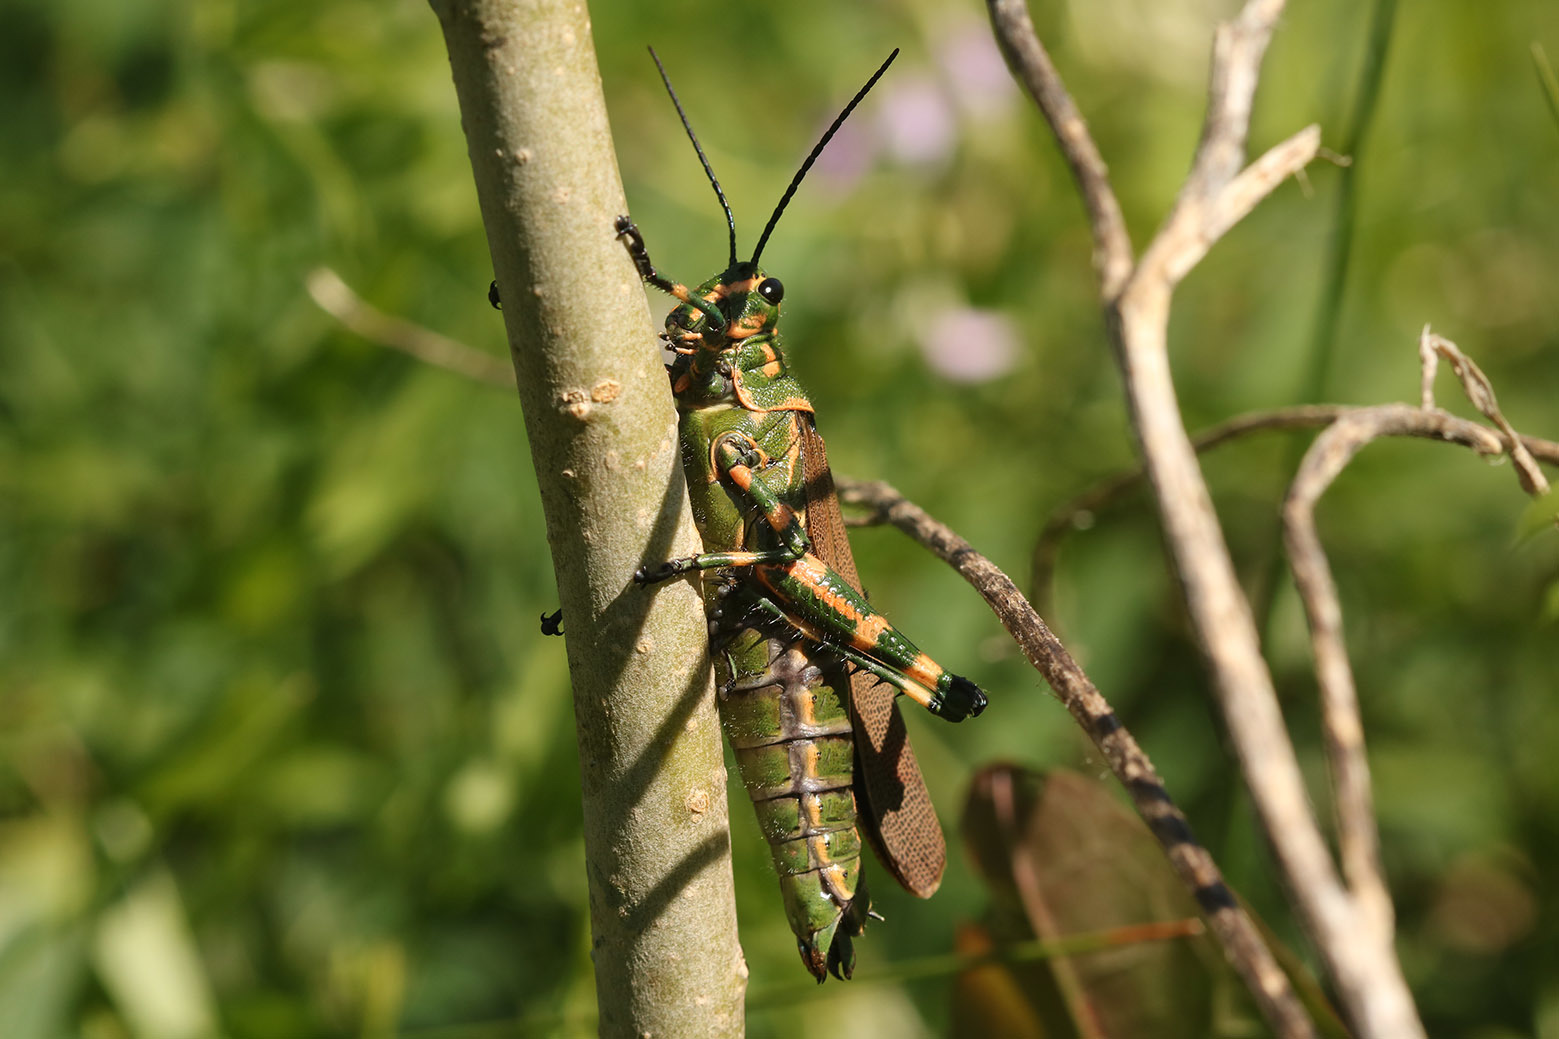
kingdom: Animalia
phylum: Arthropoda
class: Insecta
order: Orthoptera
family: Romaleidae
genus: Chromacris
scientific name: Chromacris speciosa
